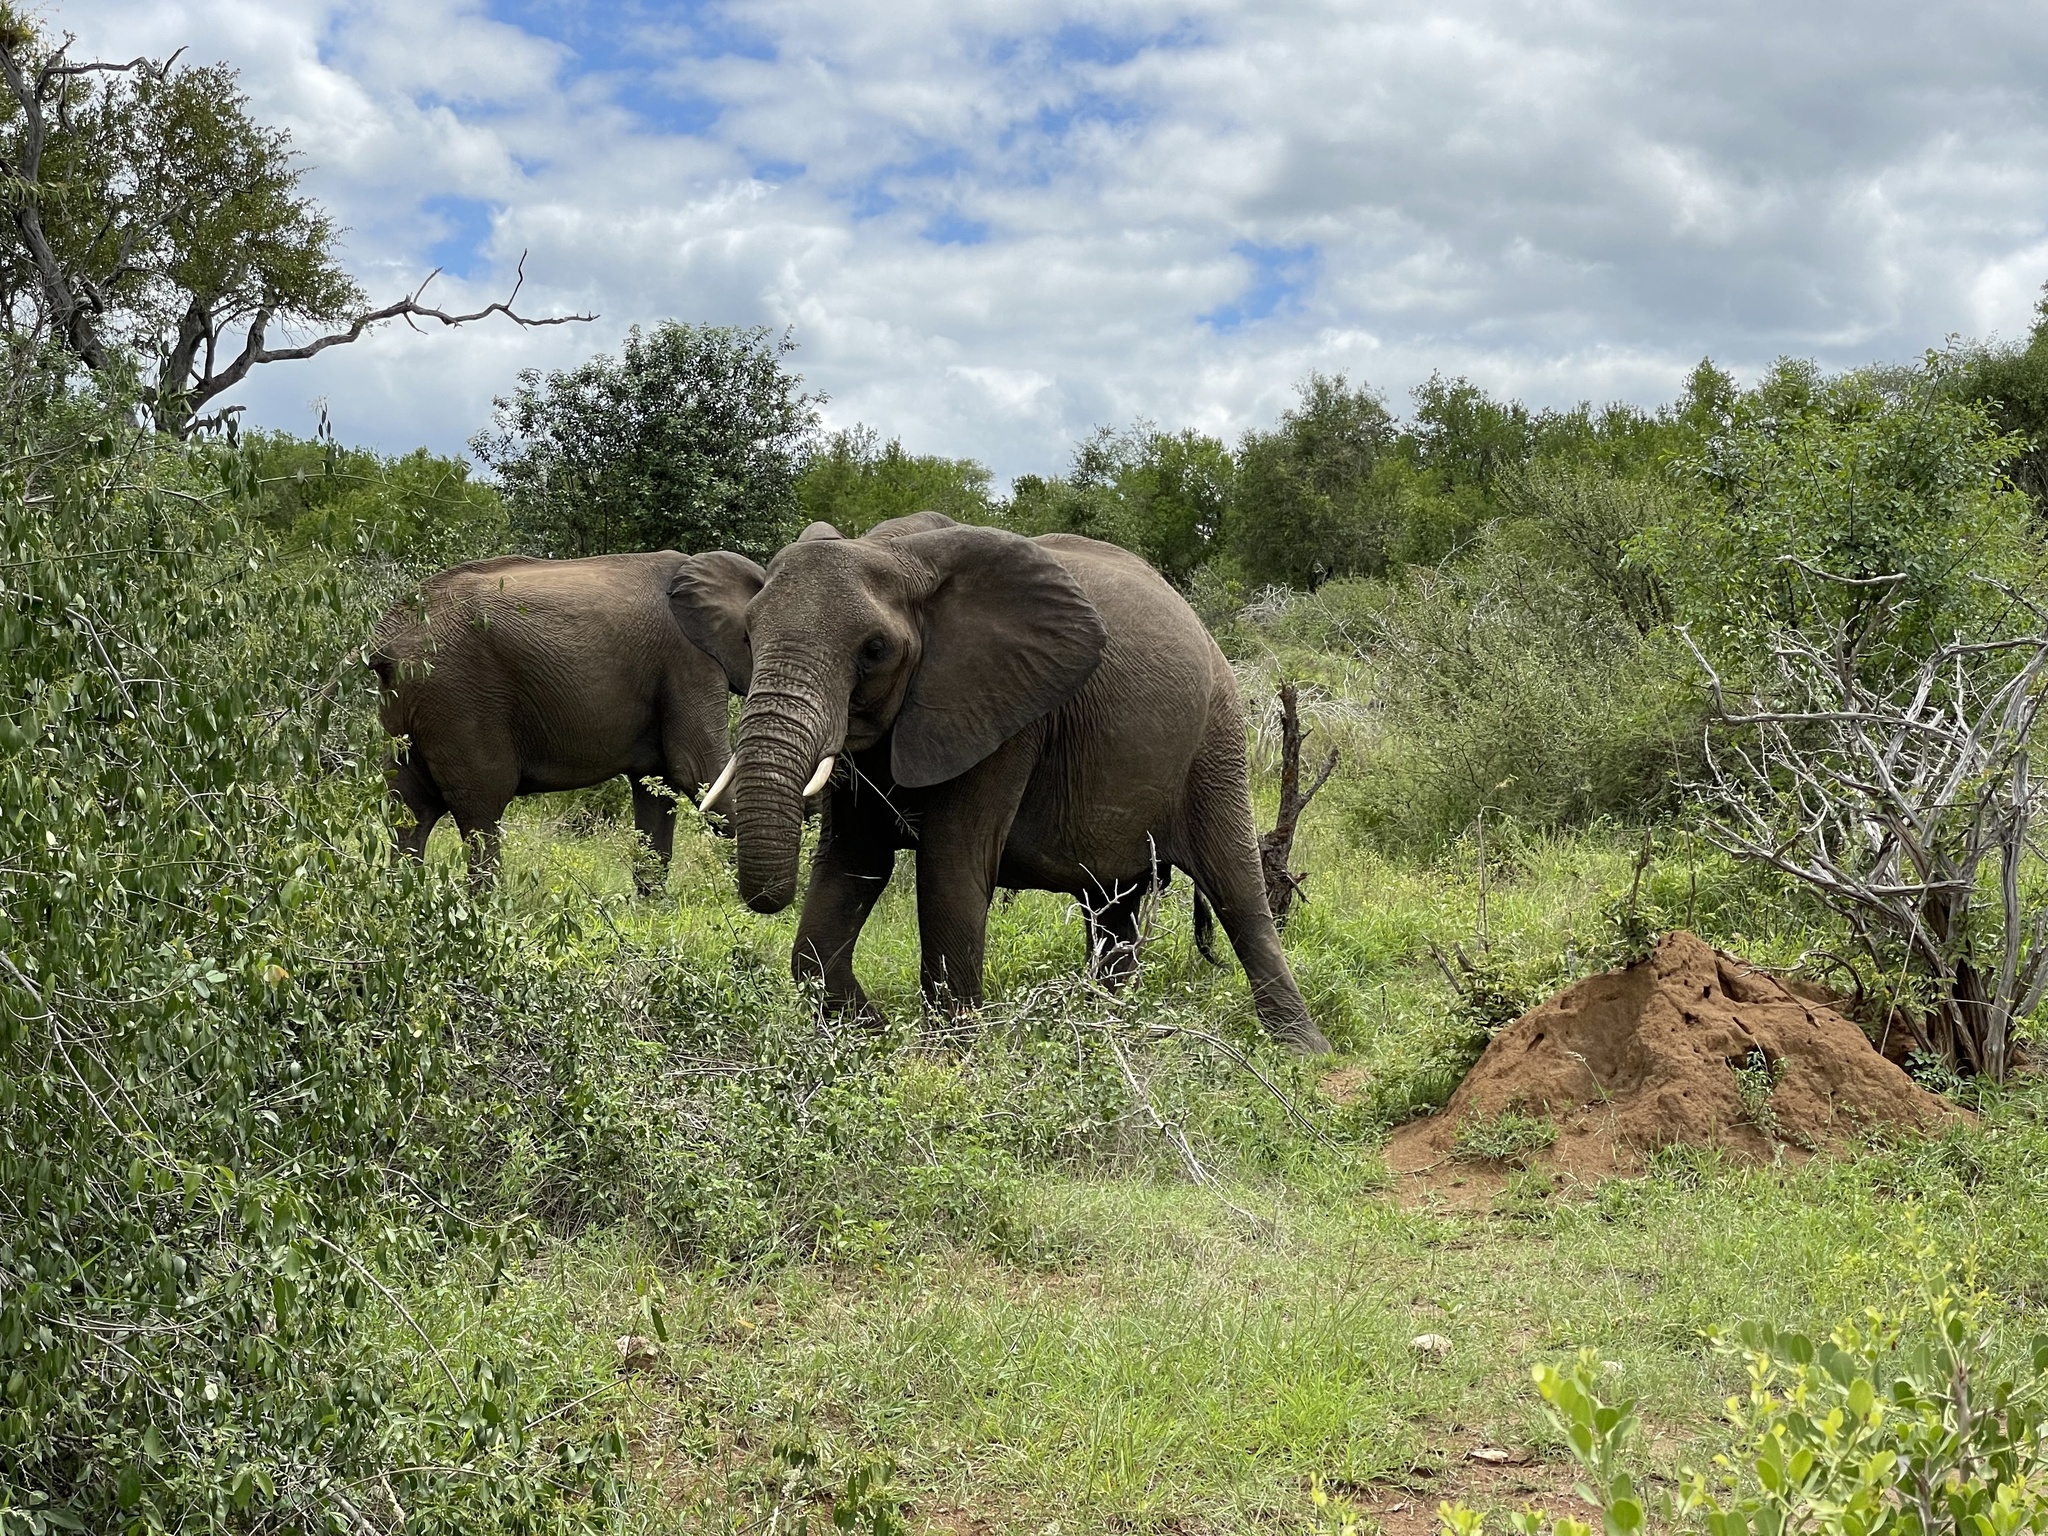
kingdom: Animalia
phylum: Chordata
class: Mammalia
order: Proboscidea
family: Elephantidae
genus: Loxodonta
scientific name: Loxodonta africana
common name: African elephant
